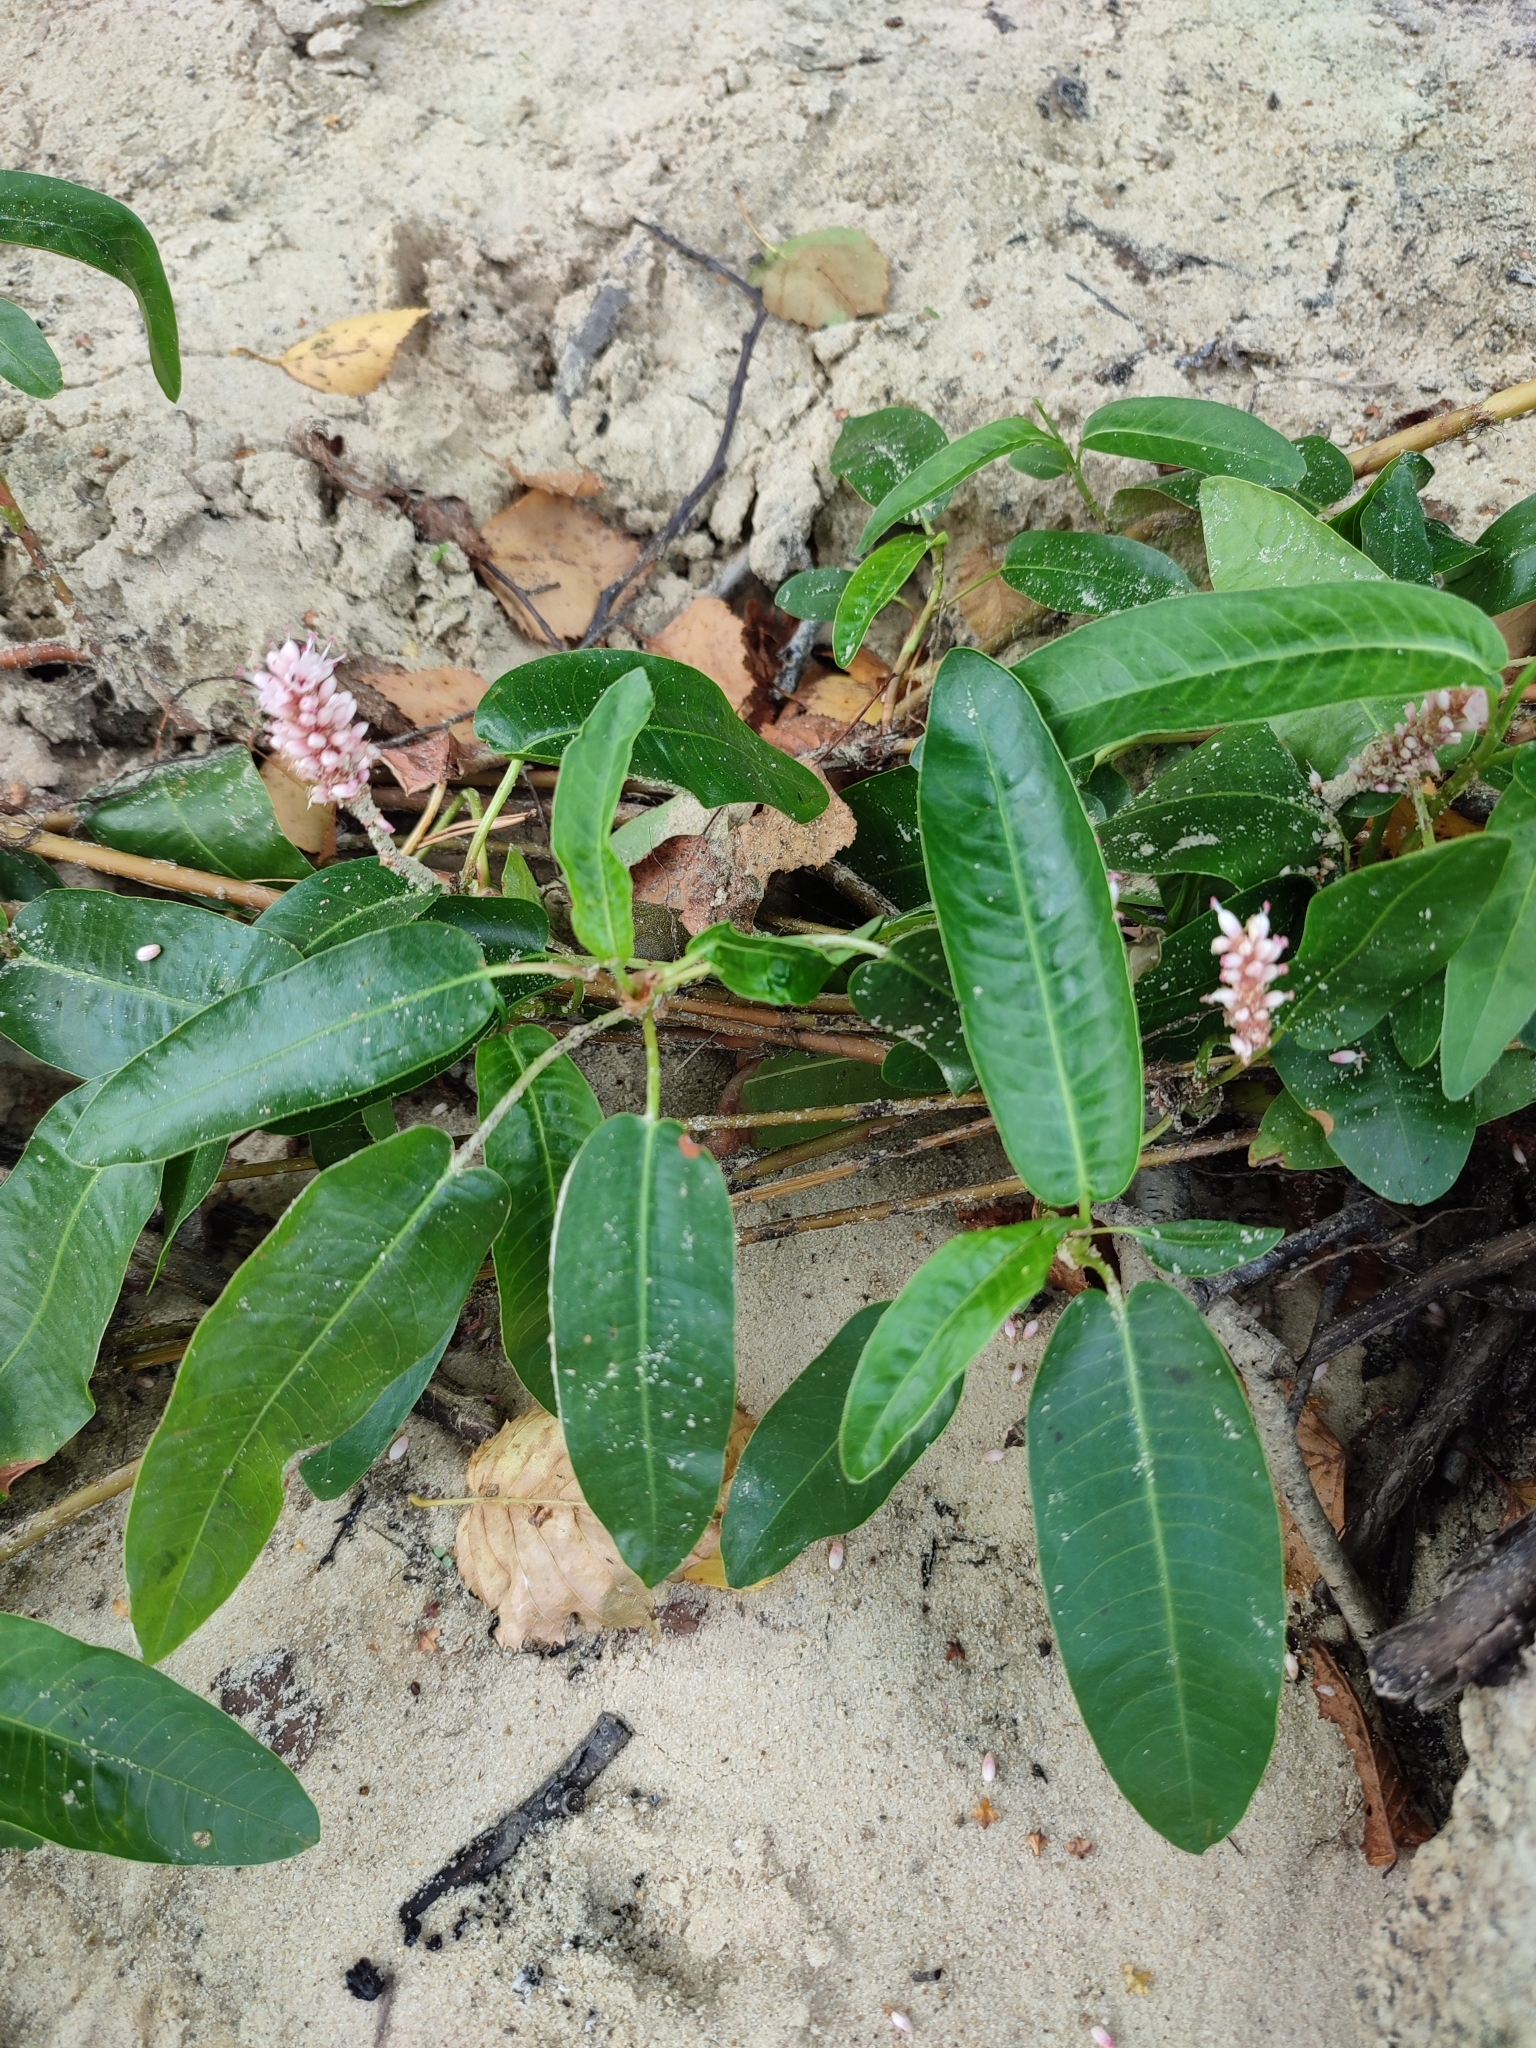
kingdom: Plantae
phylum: Tracheophyta
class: Magnoliopsida
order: Caryophyllales
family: Polygonaceae
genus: Persicaria
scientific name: Persicaria amphibia
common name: Amphibious bistort
